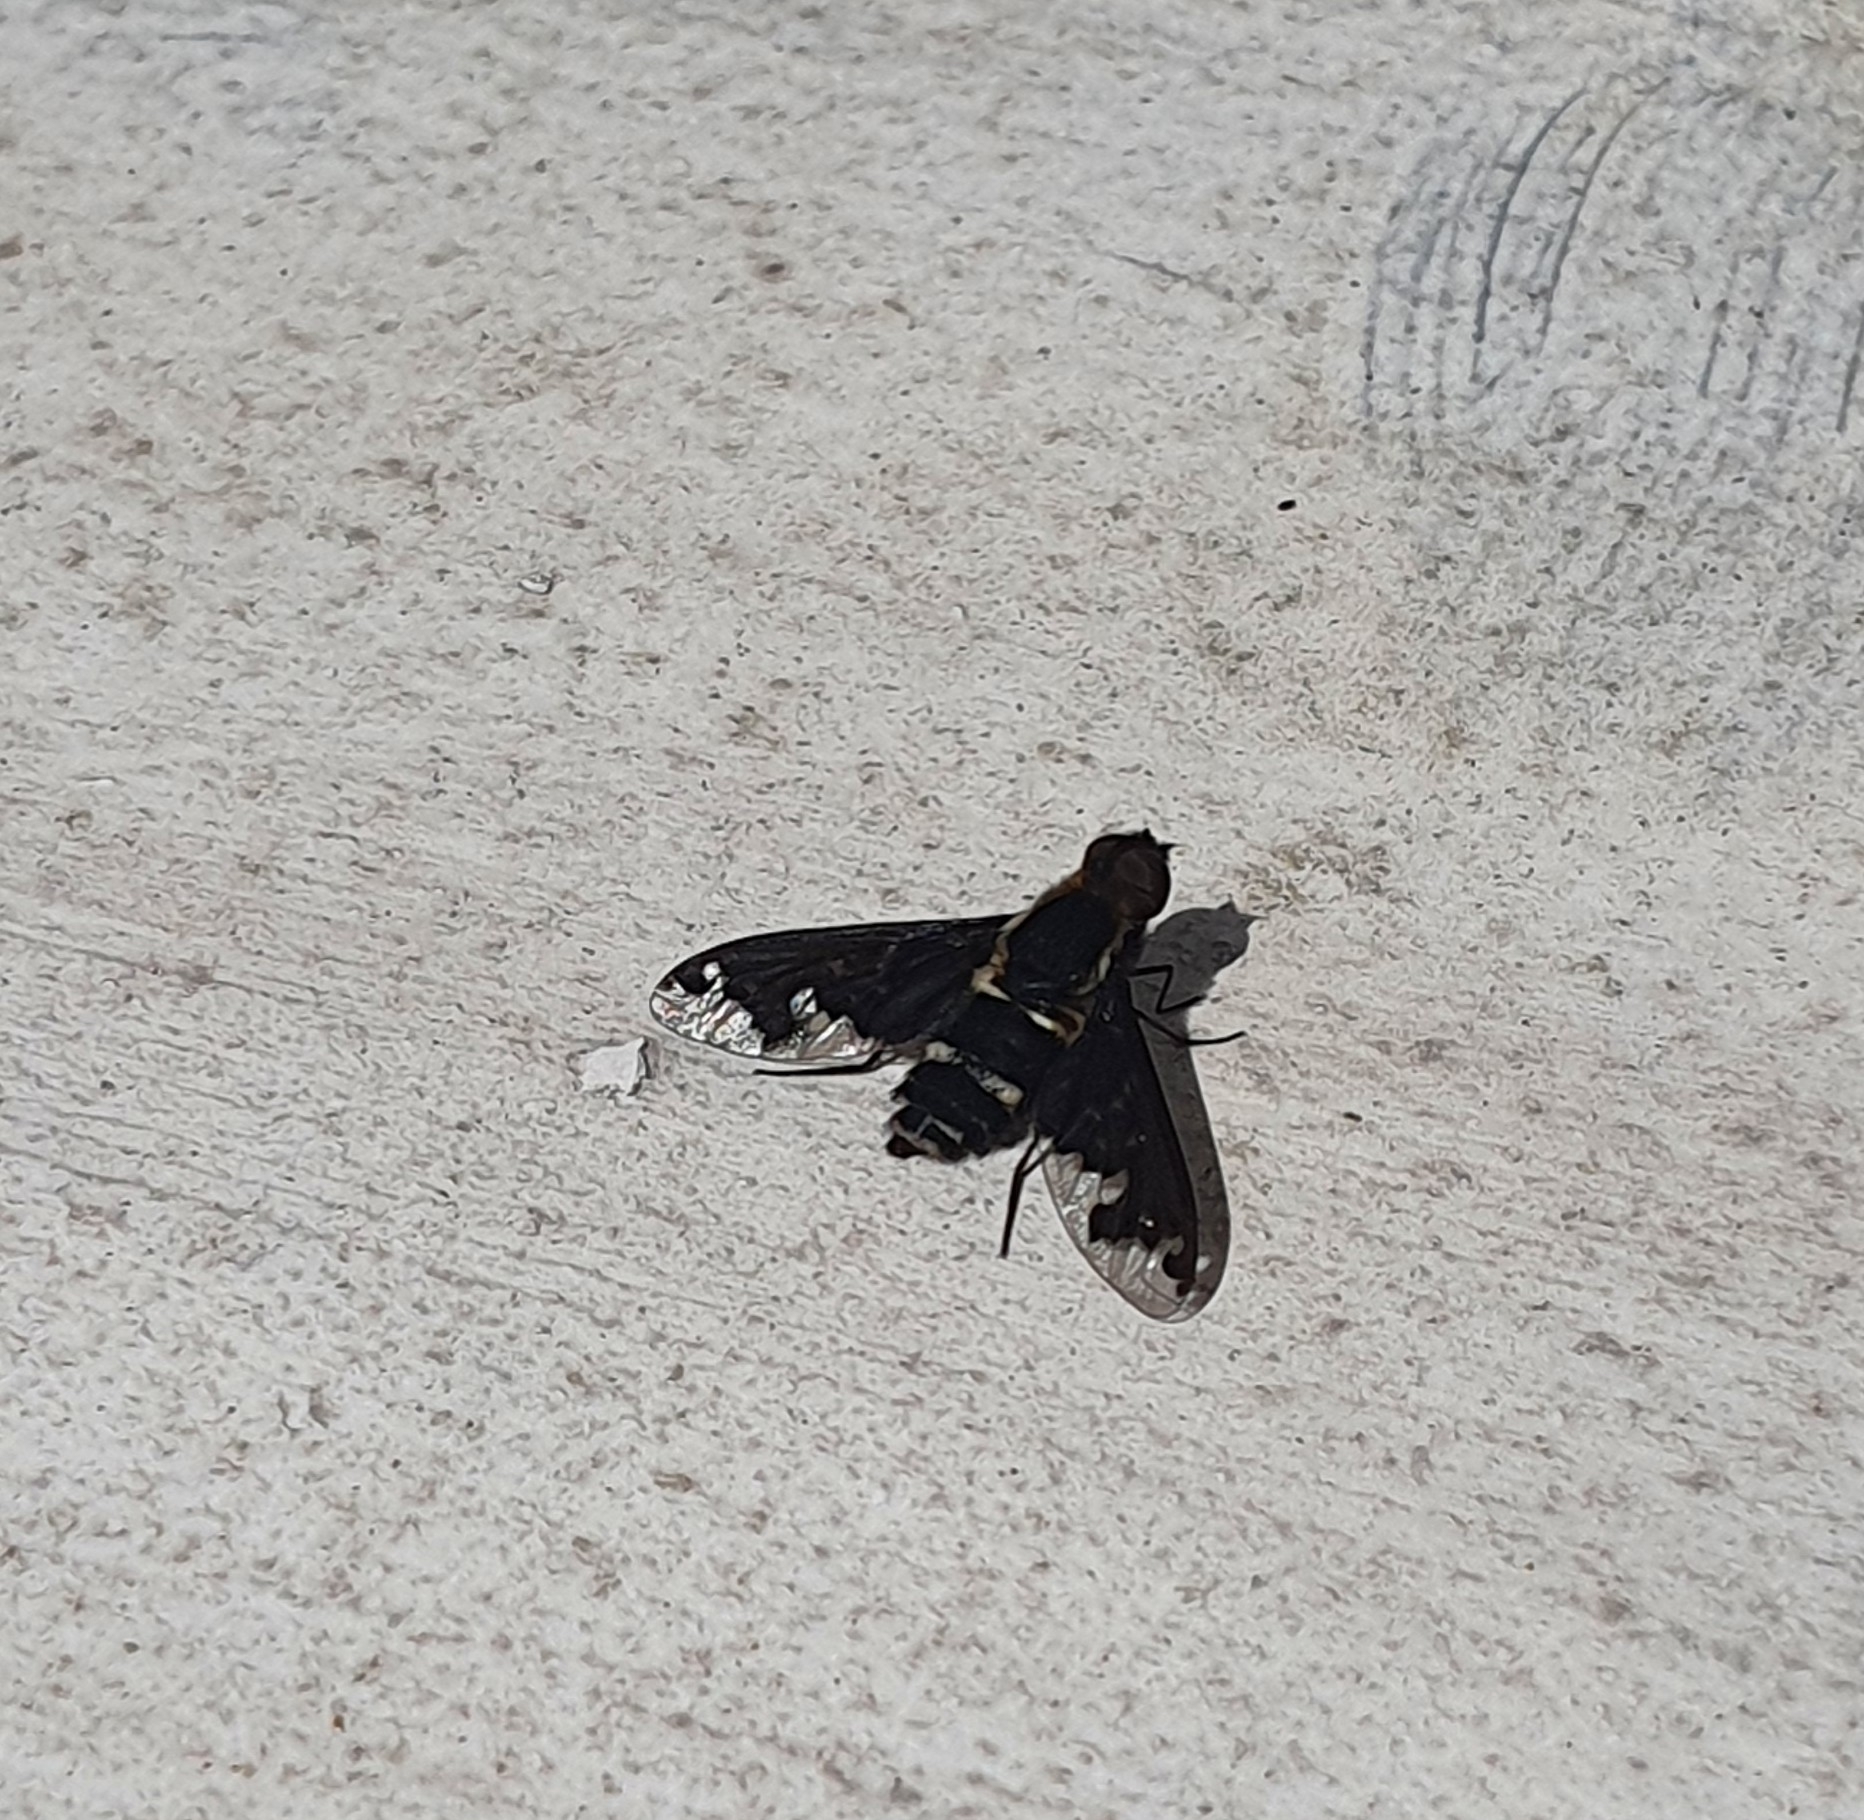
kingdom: Animalia
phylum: Arthropoda
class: Insecta
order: Diptera
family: Bombyliidae
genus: Hemipenthes
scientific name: Hemipenthes maura
